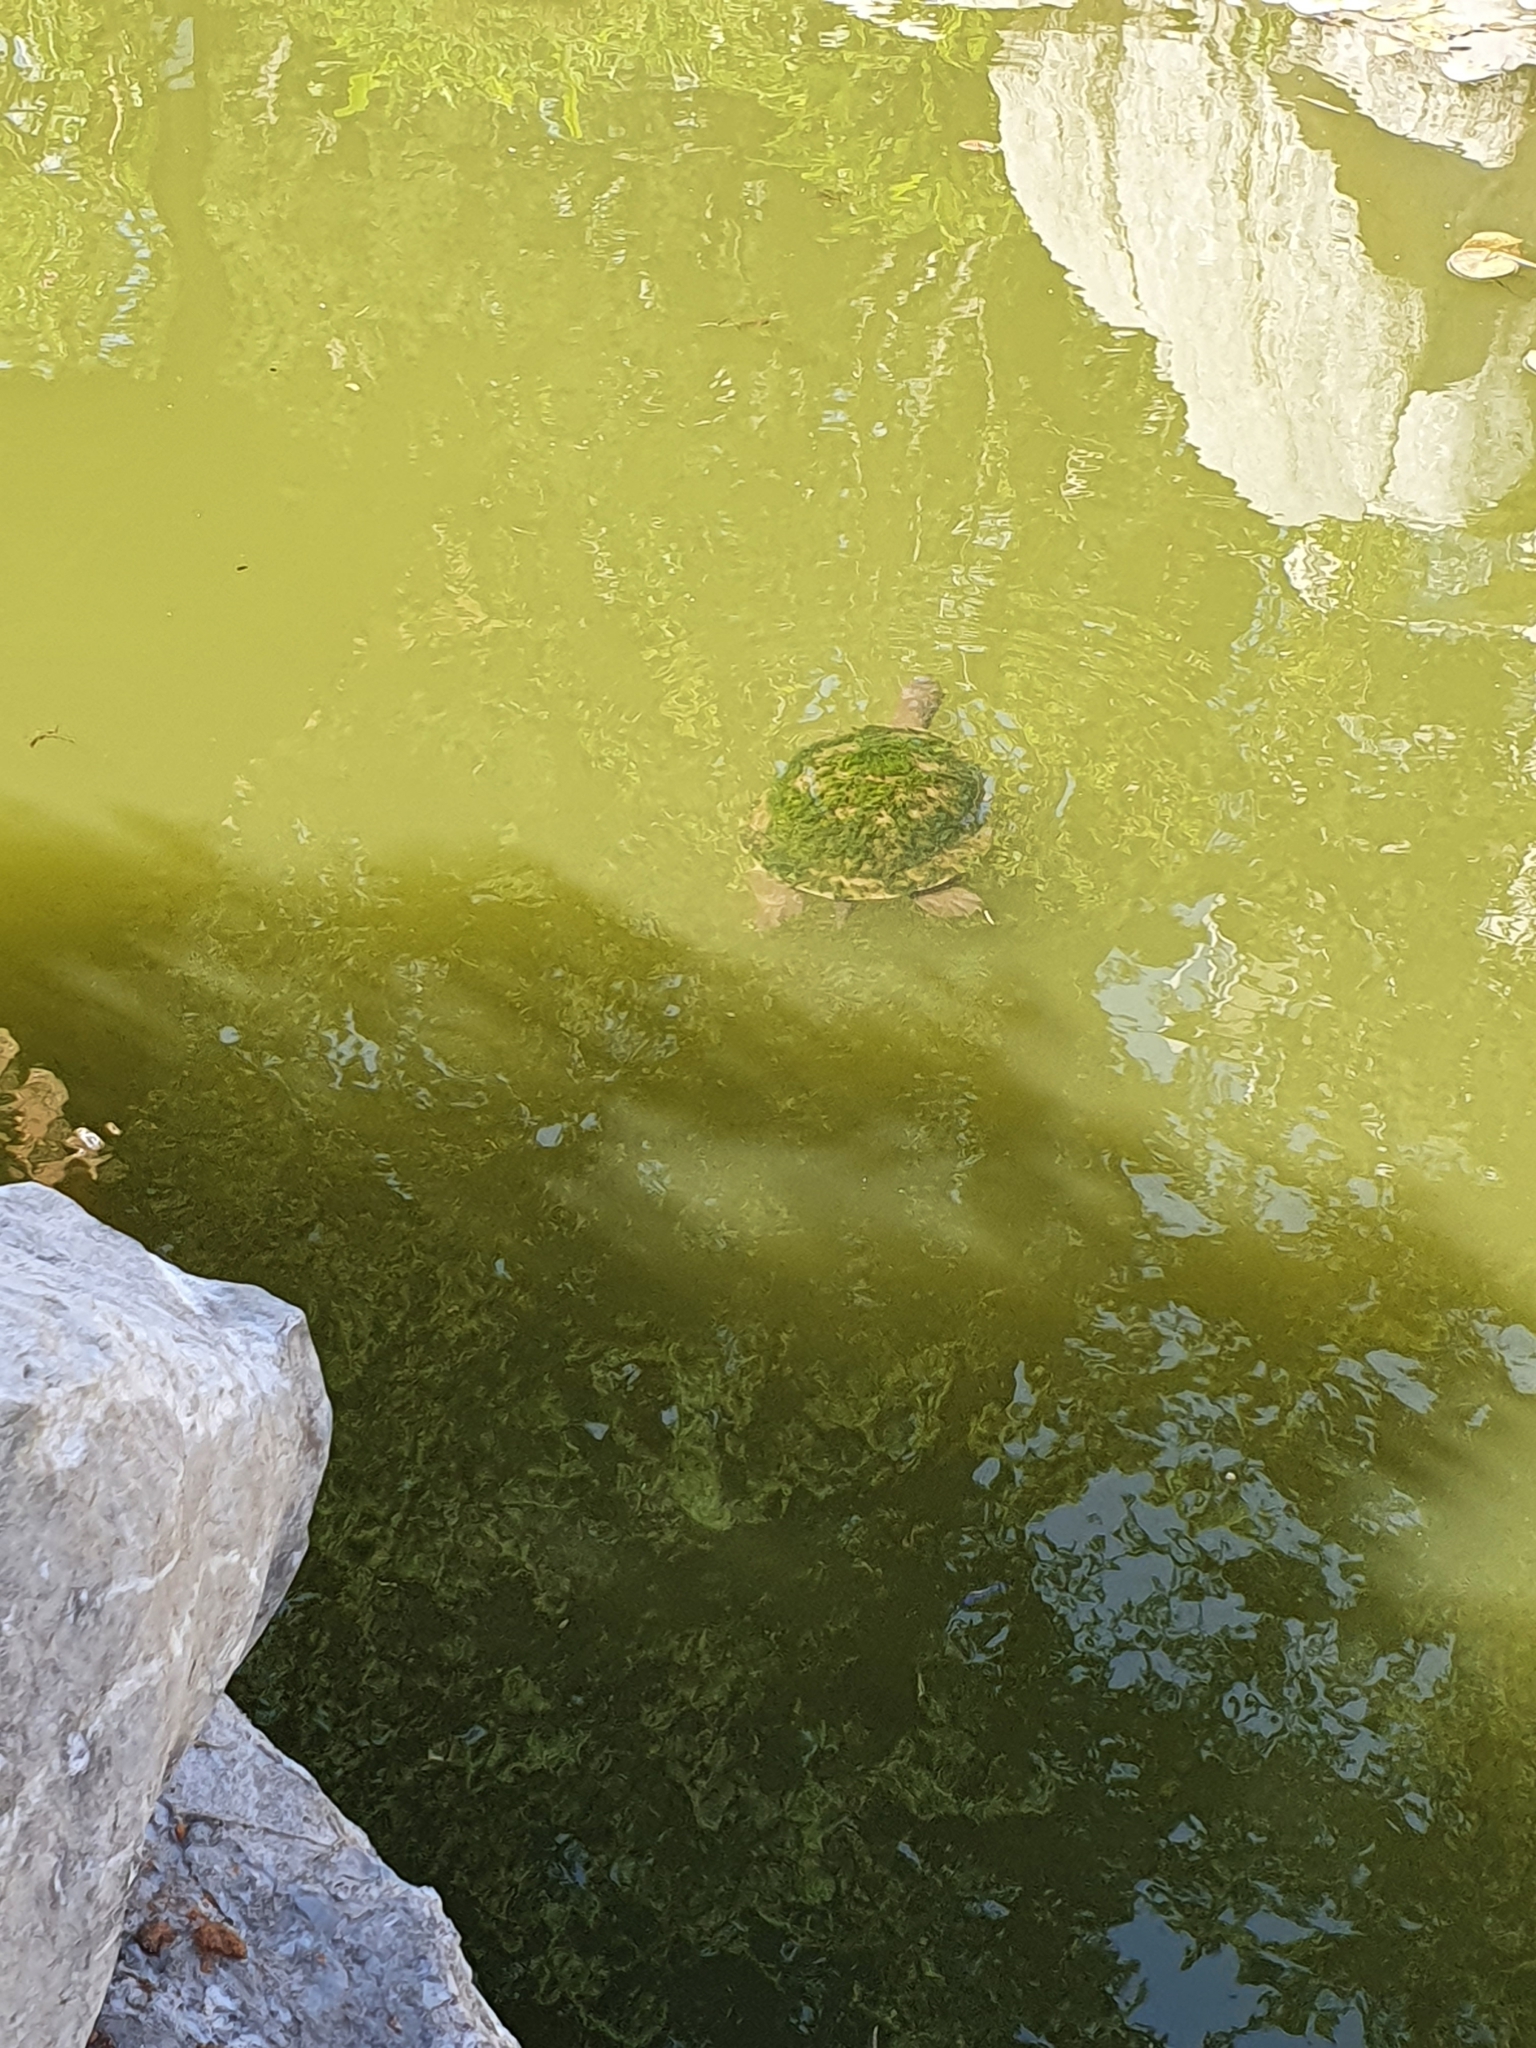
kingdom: Animalia
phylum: Chordata
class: Testudines
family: Chelidae
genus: Emydura
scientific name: Emydura macquarii
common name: Murray river turtle
